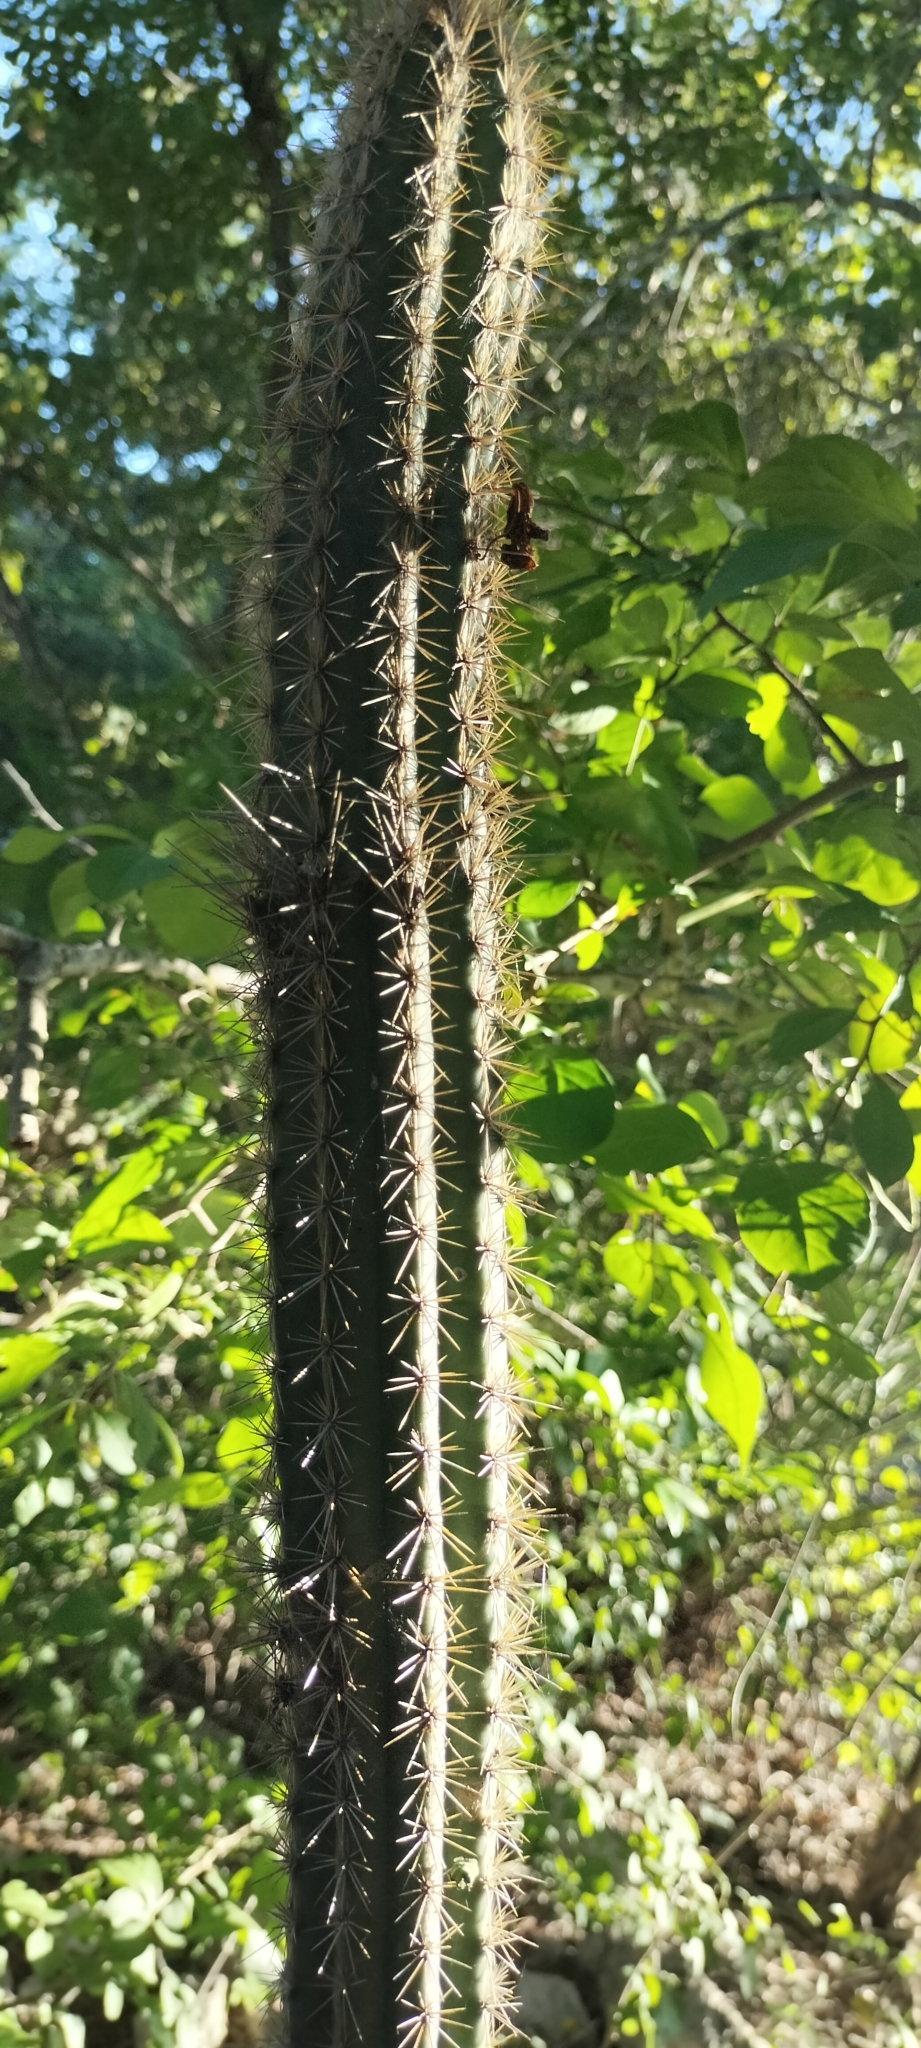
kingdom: Plantae
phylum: Tracheophyta
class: Magnoliopsida
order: Caryophyllales
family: Cactaceae
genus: Pilosocereus
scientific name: Pilosocereus gaumeri
